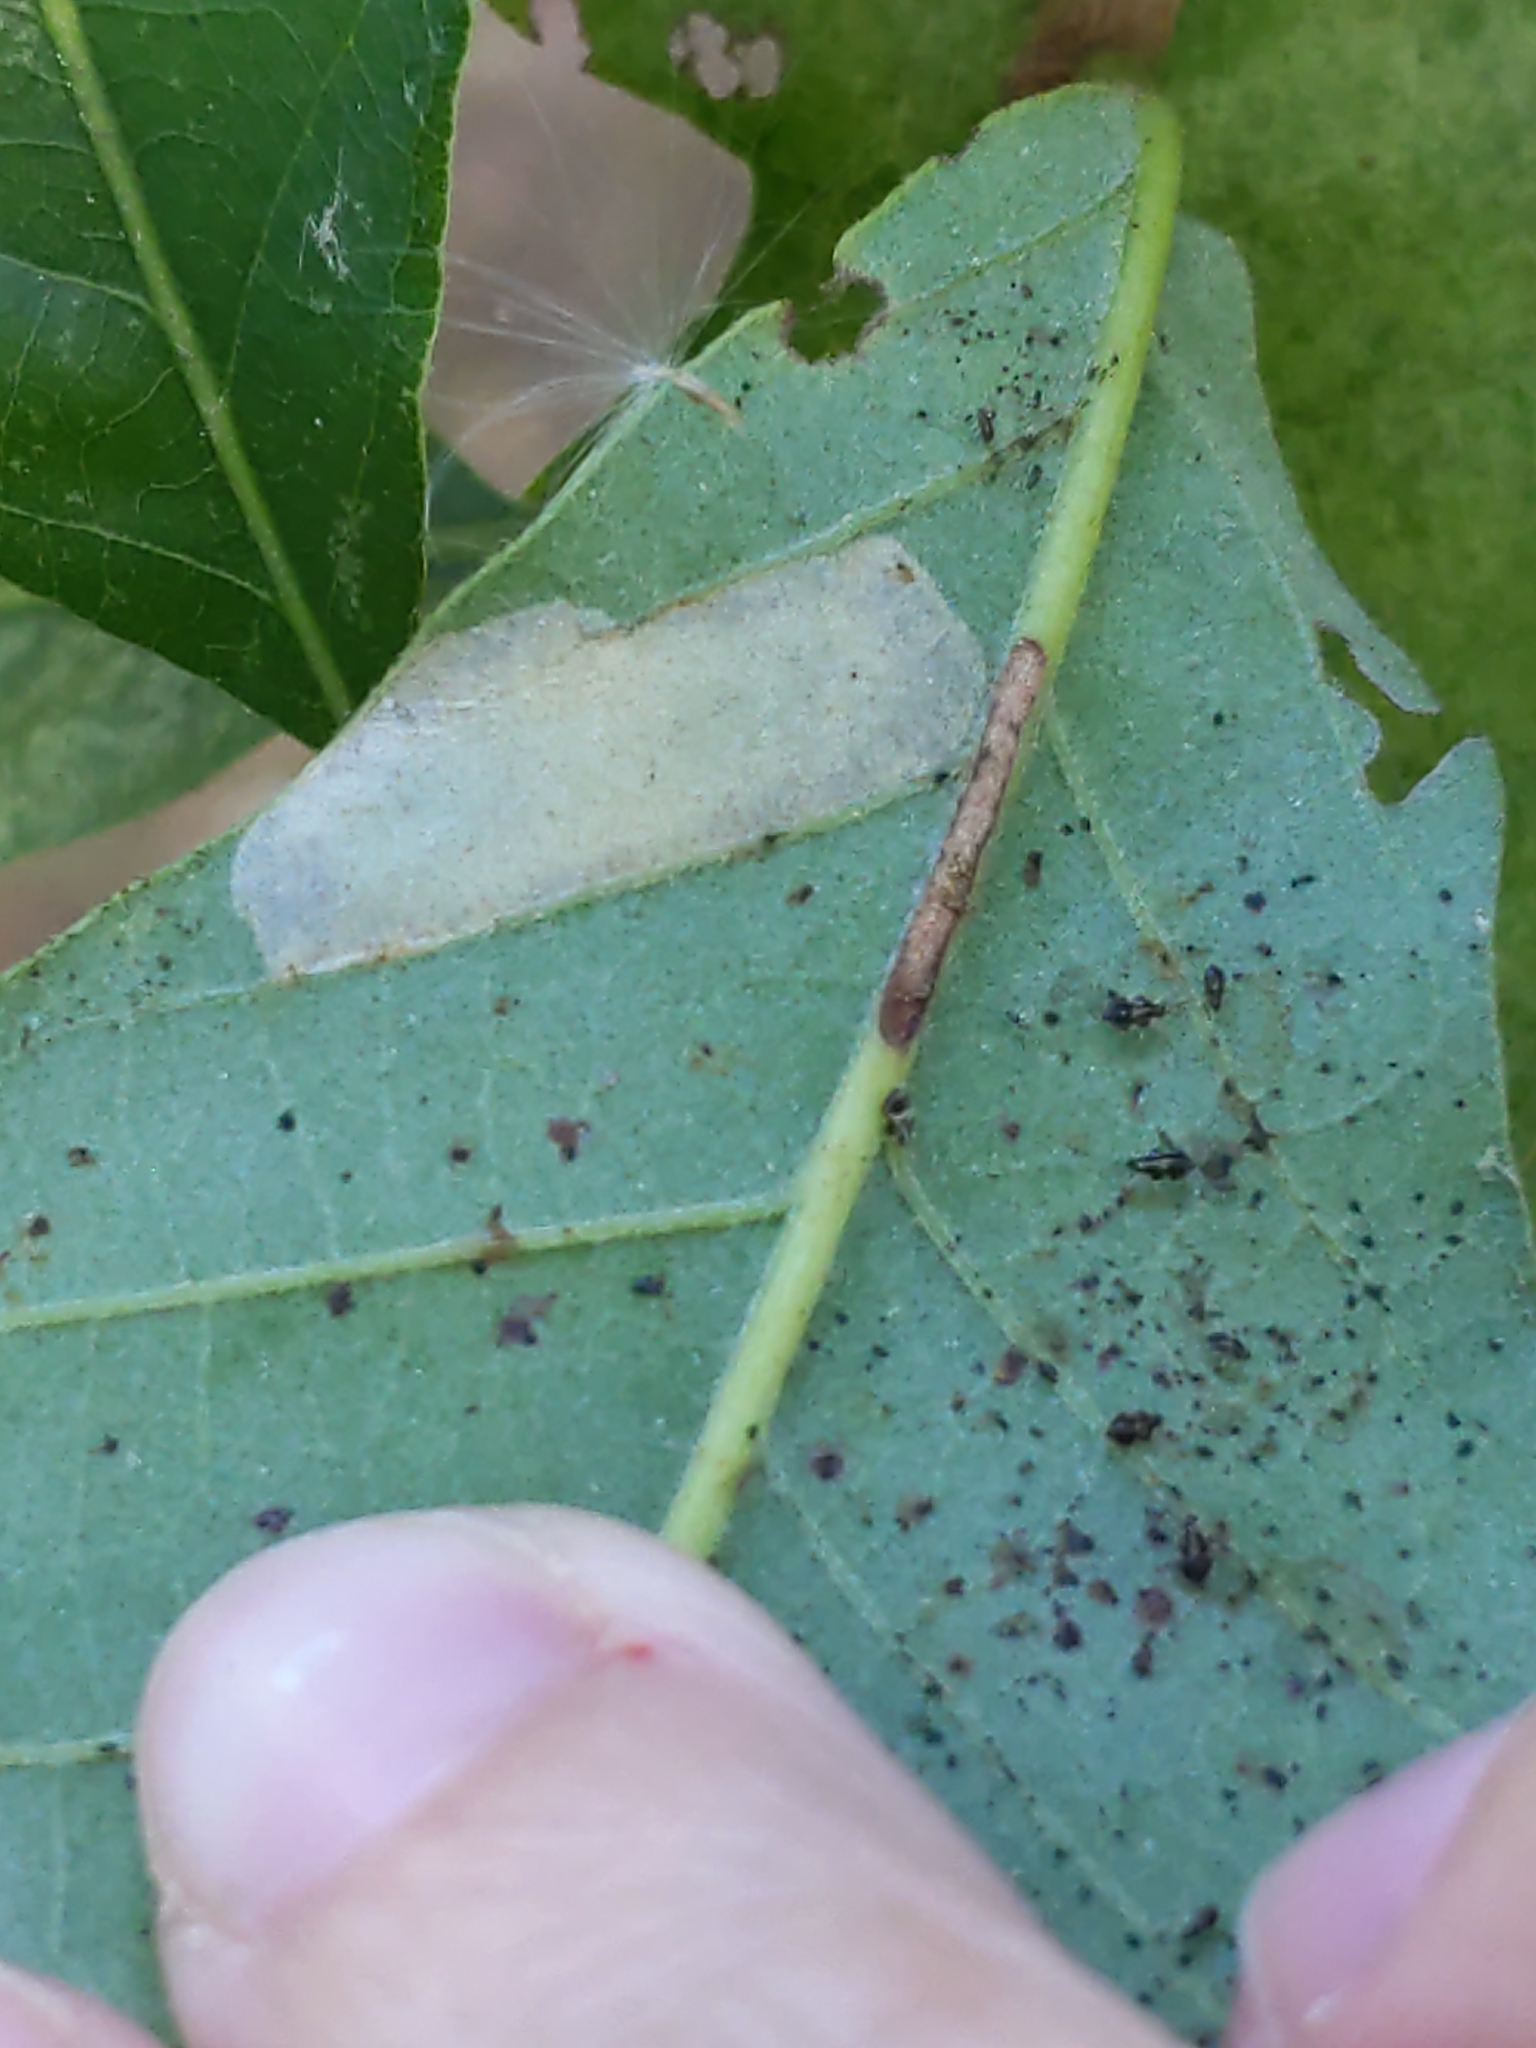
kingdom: Animalia
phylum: Arthropoda
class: Insecta
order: Lepidoptera
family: Gracillariidae
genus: Phyllonorycter
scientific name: Phyllonorycter
